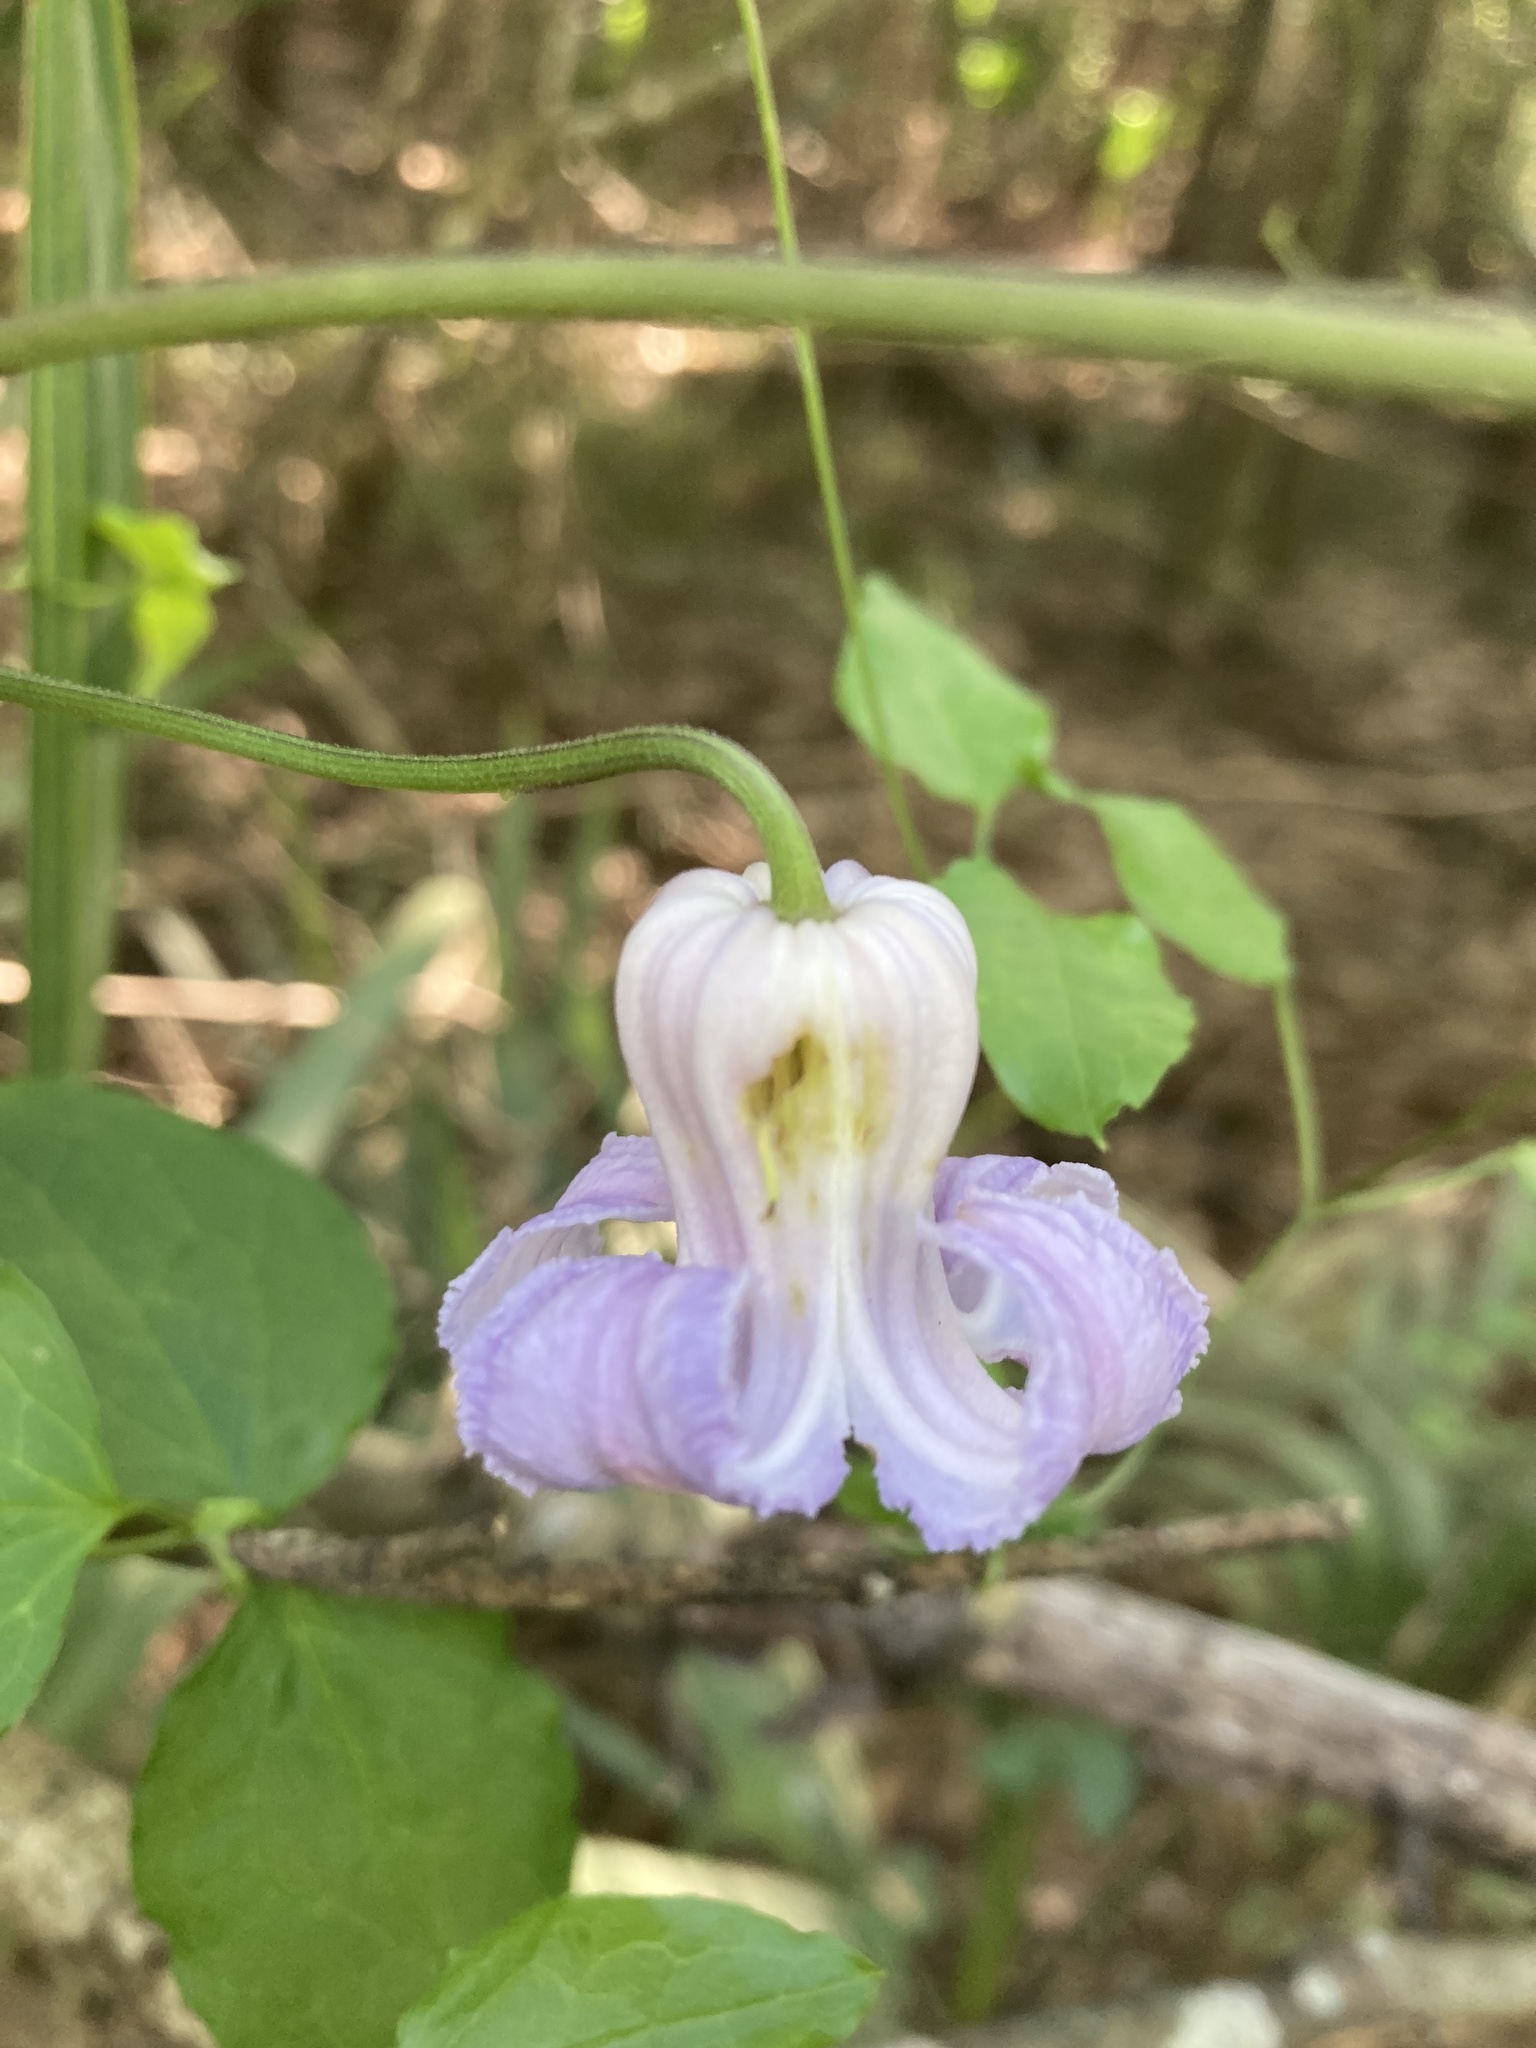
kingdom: Plantae
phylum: Tracheophyta
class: Magnoliopsida
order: Ranunculales
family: Ranunculaceae
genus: Clematis
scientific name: Clematis crispa
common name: Curly clematis
